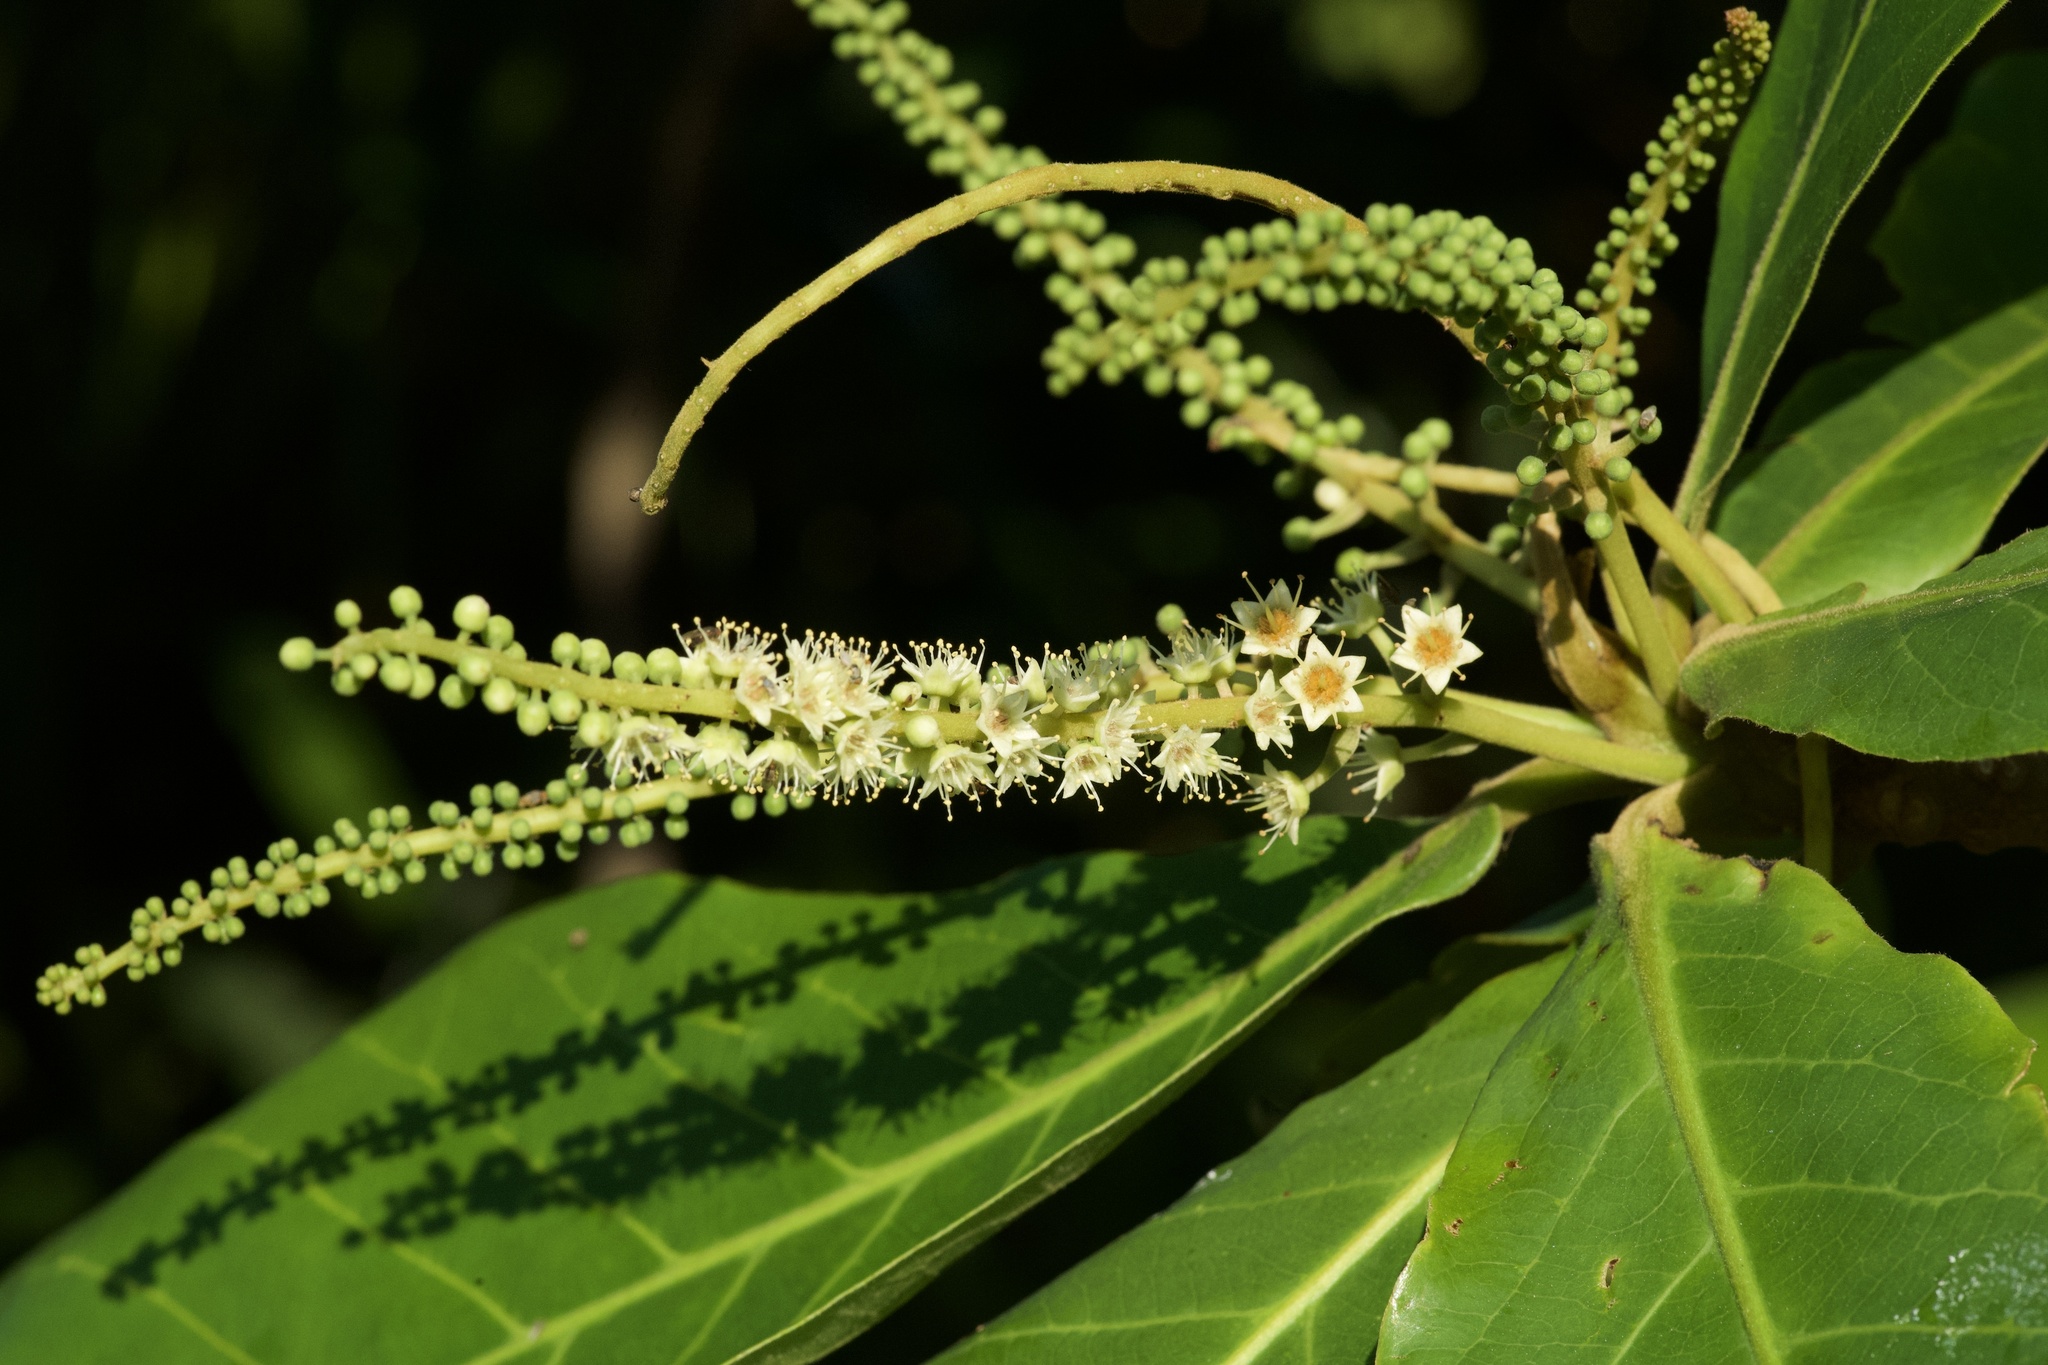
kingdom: Plantae
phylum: Tracheophyta
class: Magnoliopsida
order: Myrtales
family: Combretaceae
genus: Terminalia
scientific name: Terminalia catappa
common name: Tropical almond
